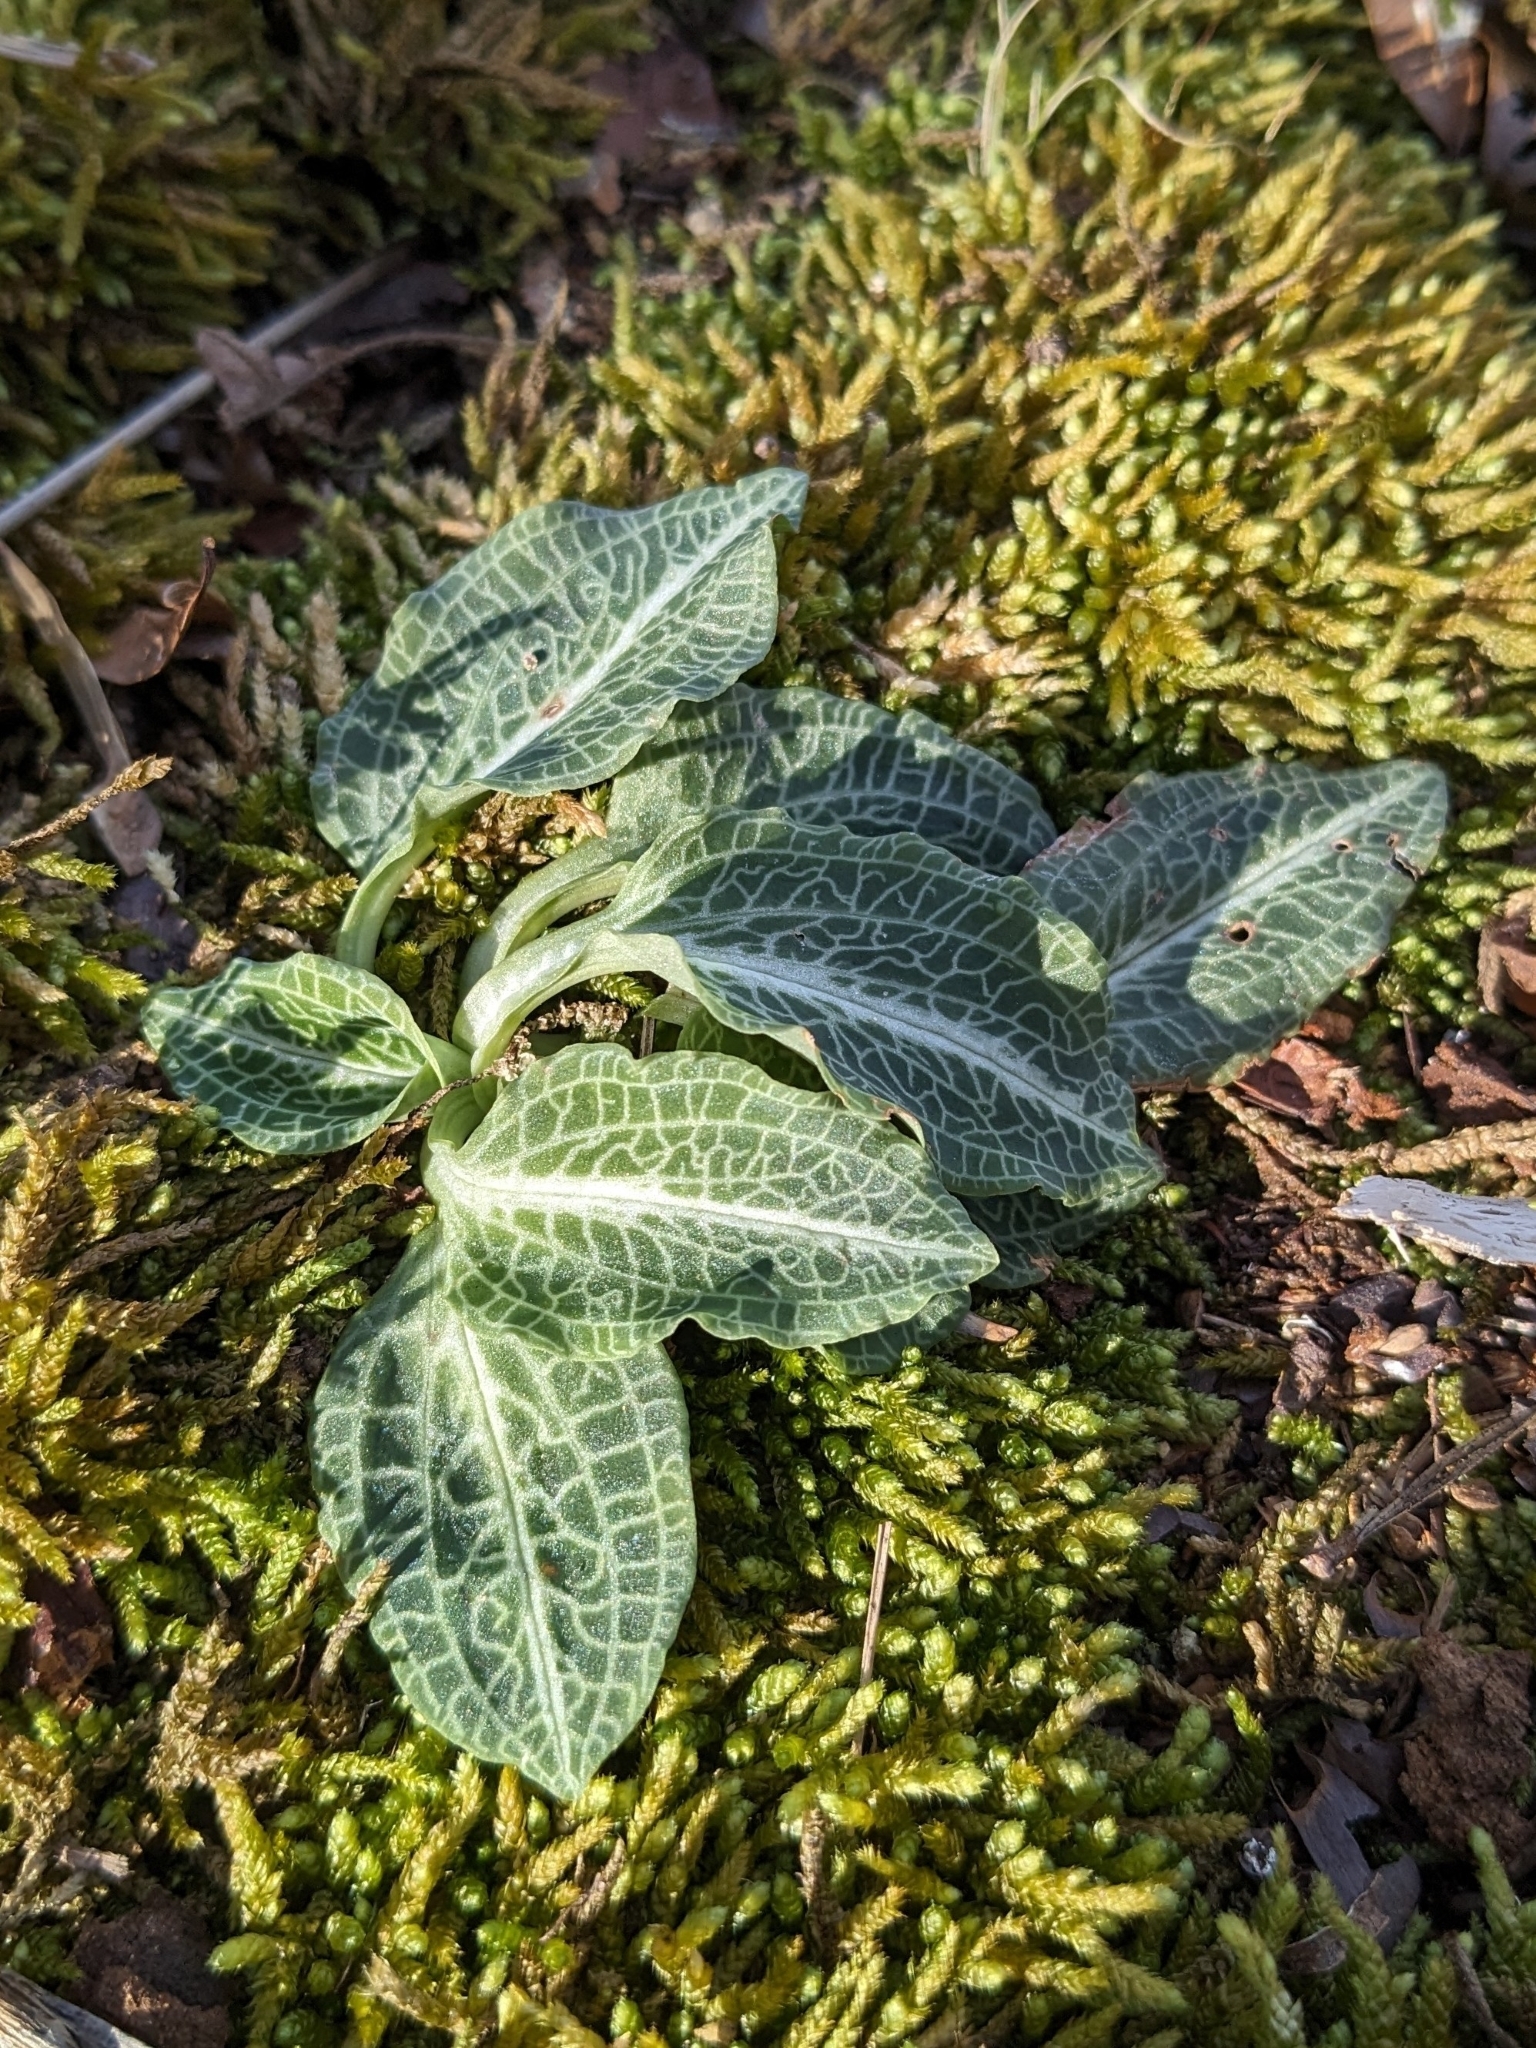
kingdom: Plantae
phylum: Tracheophyta
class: Liliopsida
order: Asparagales
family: Orchidaceae
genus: Goodyera
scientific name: Goodyera pubescens
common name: Downy rattlesnake-plantain
